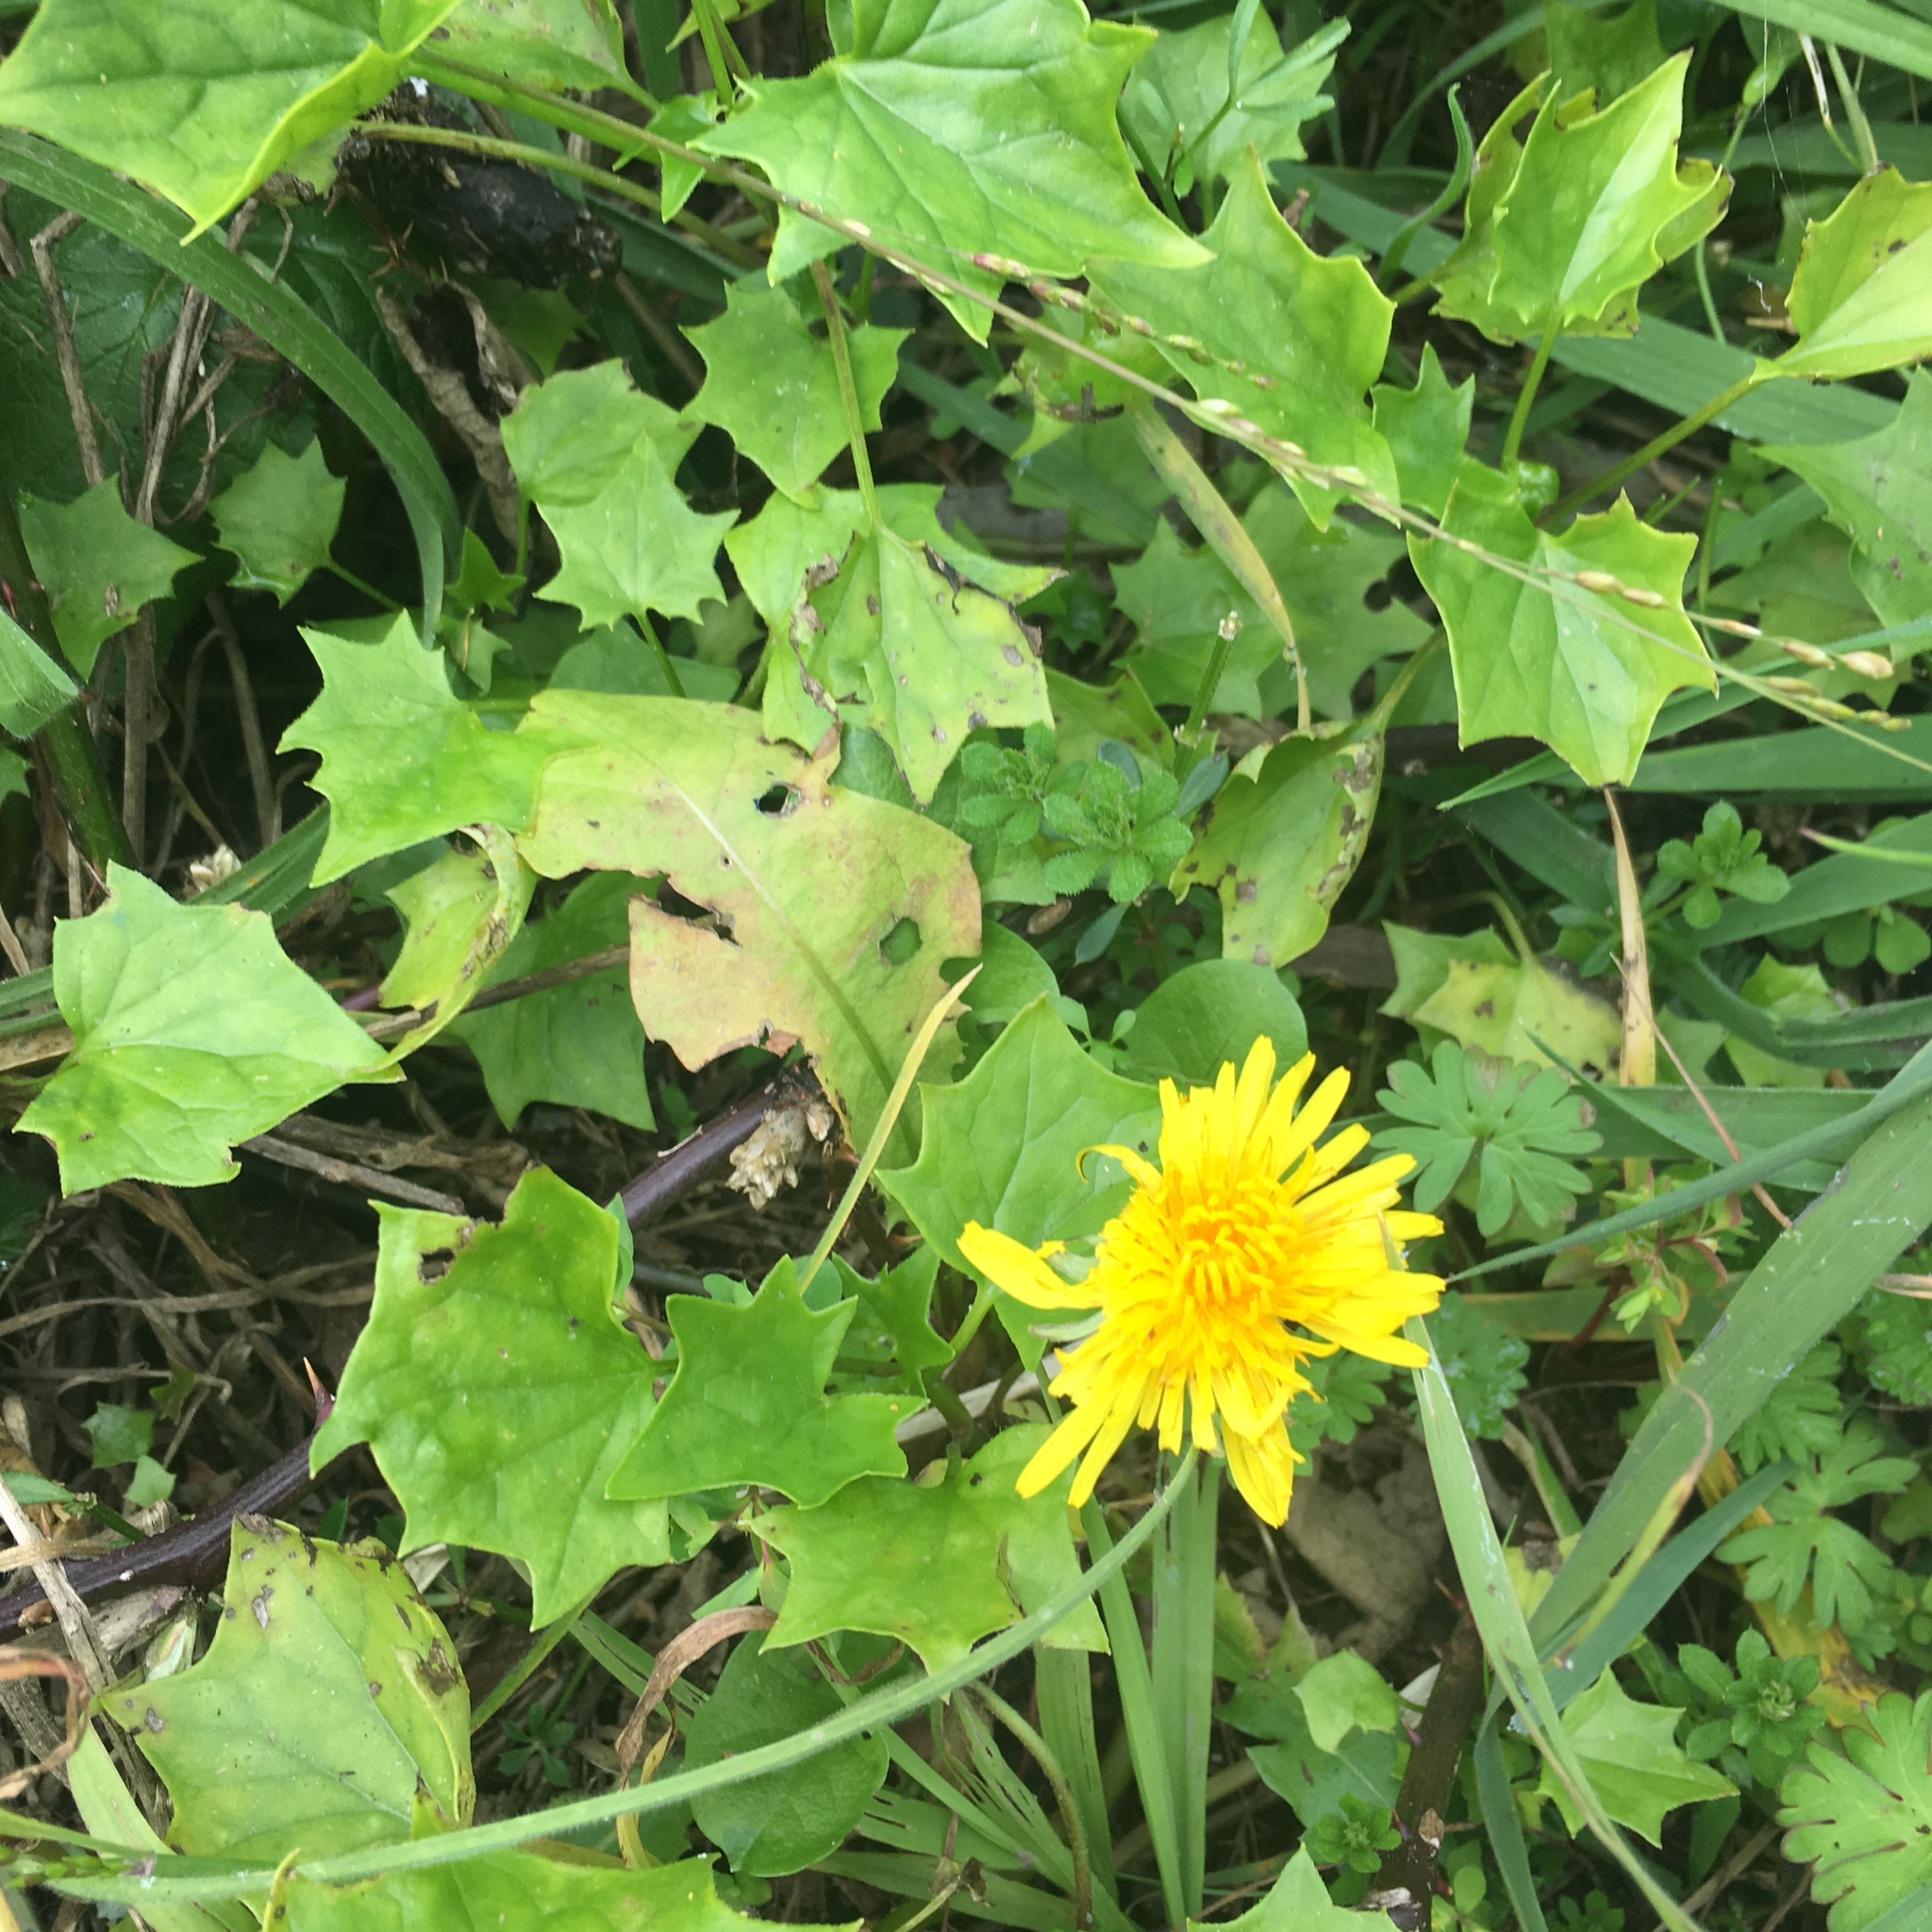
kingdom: Plantae
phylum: Tracheophyta
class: Magnoliopsida
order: Asterales
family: Asteraceae
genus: Taraxacum
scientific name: Taraxacum officinale
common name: Common dandelion
